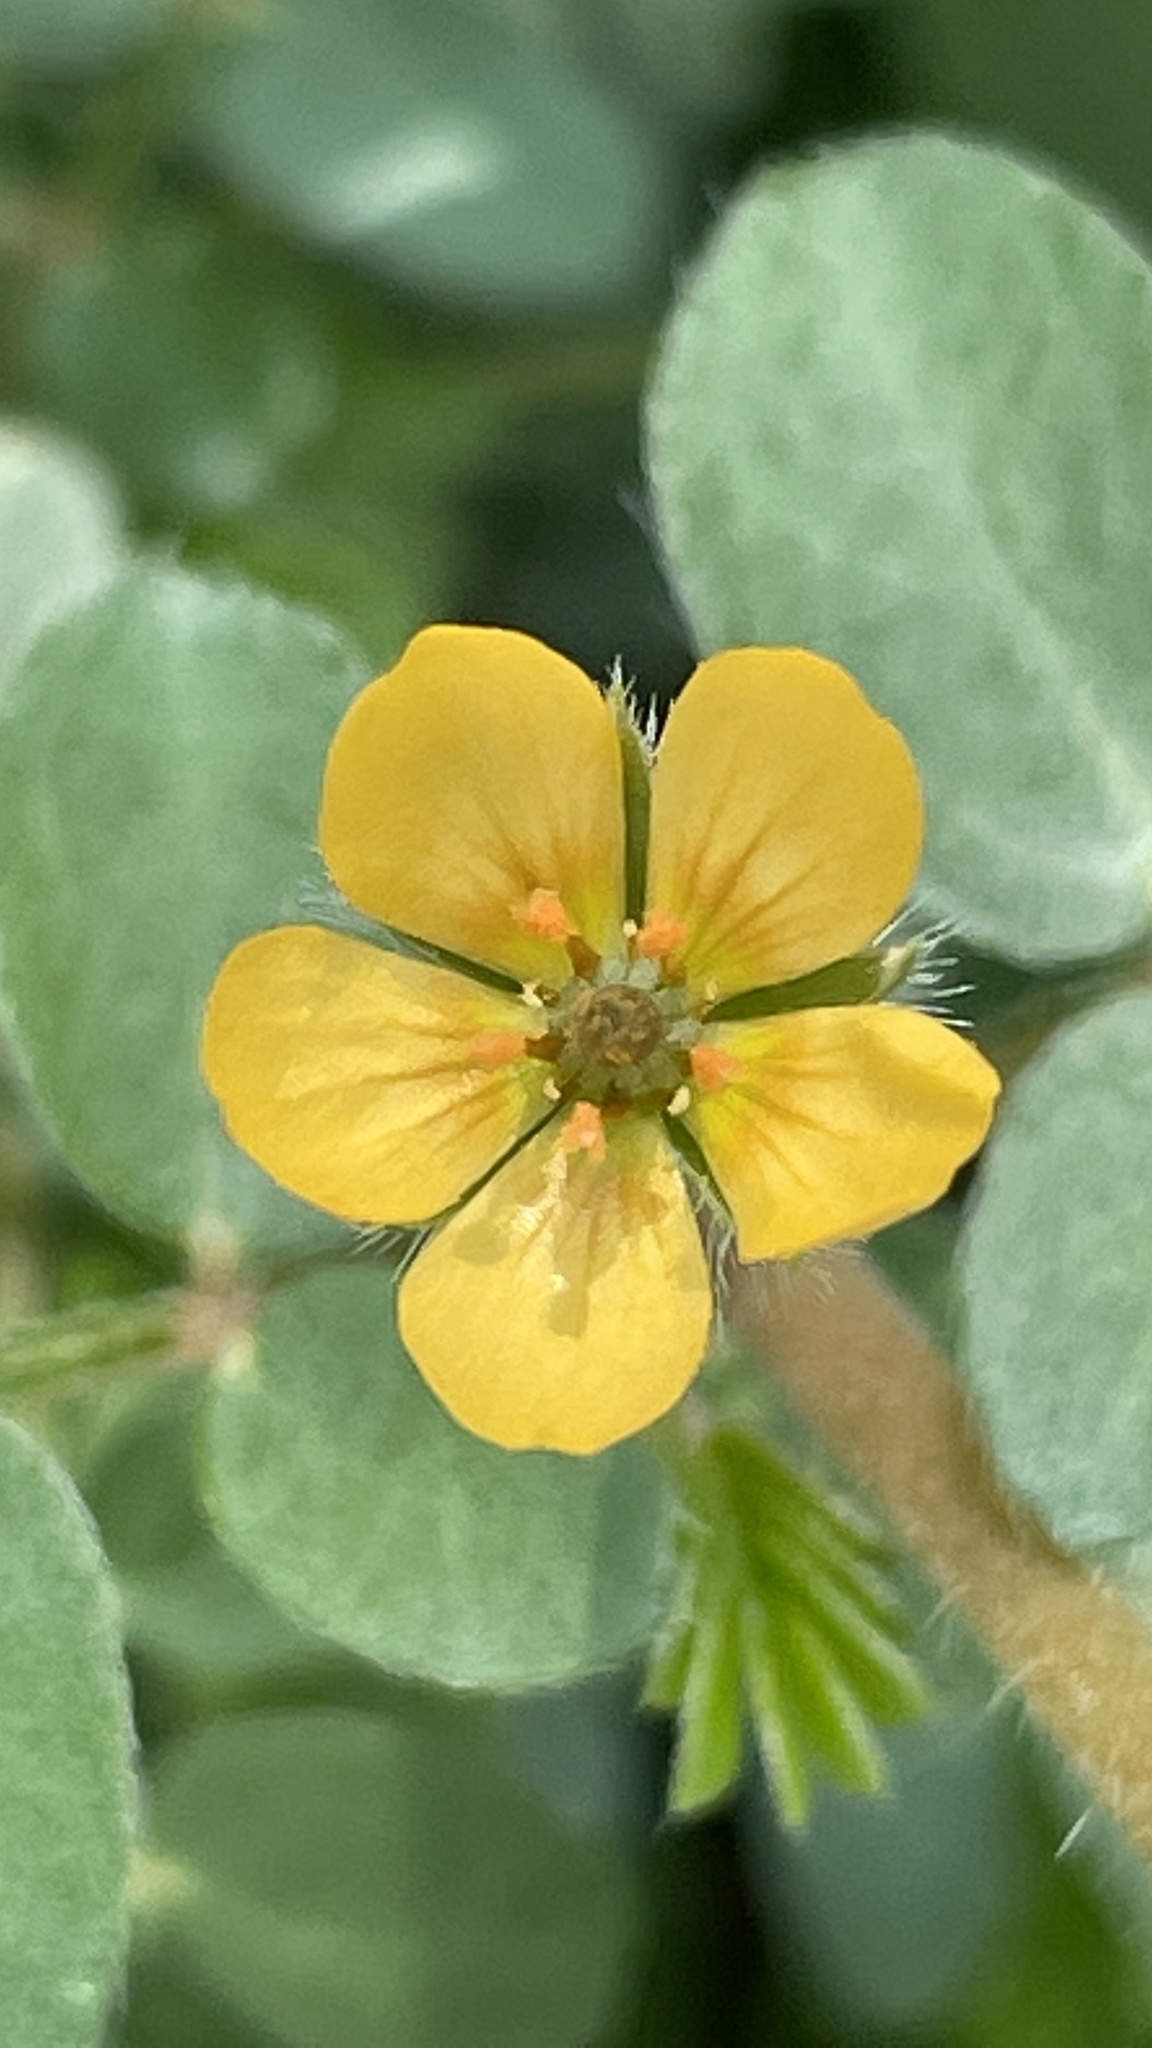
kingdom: Plantae
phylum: Tracheophyta
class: Magnoliopsida
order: Zygophyllales
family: Zygophyllaceae
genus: Kallstroemia
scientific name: Kallstroemia parviflora
